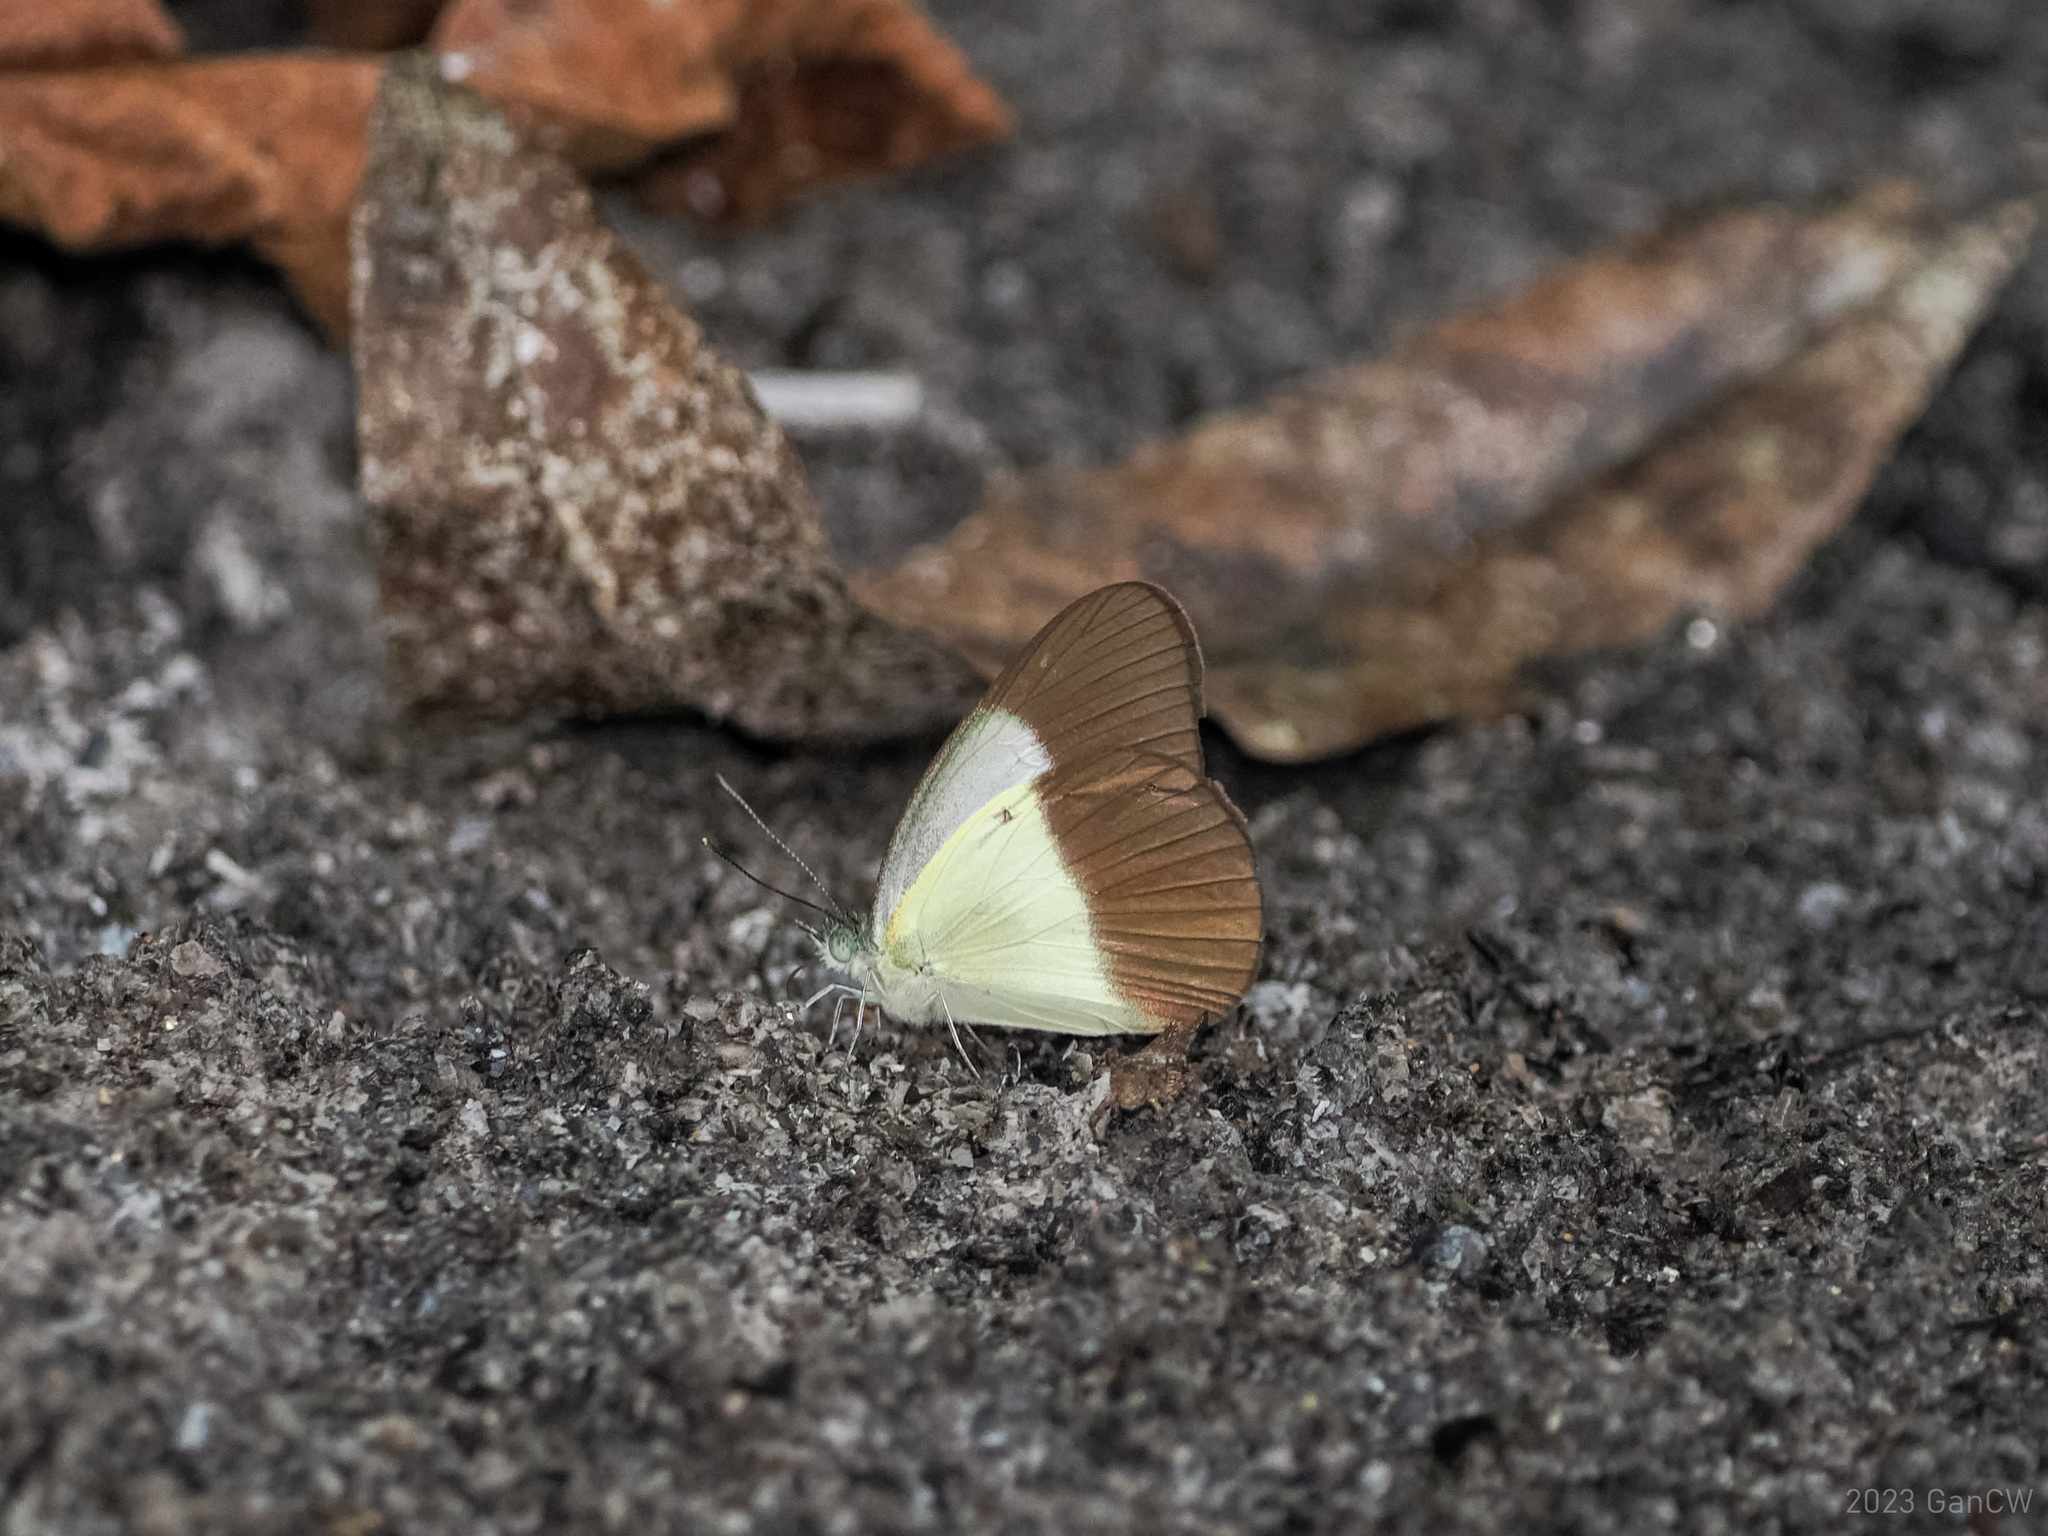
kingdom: Animalia
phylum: Arthropoda
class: Insecta
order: Lepidoptera
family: Pieridae
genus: Aoa
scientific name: Aoa affinis
